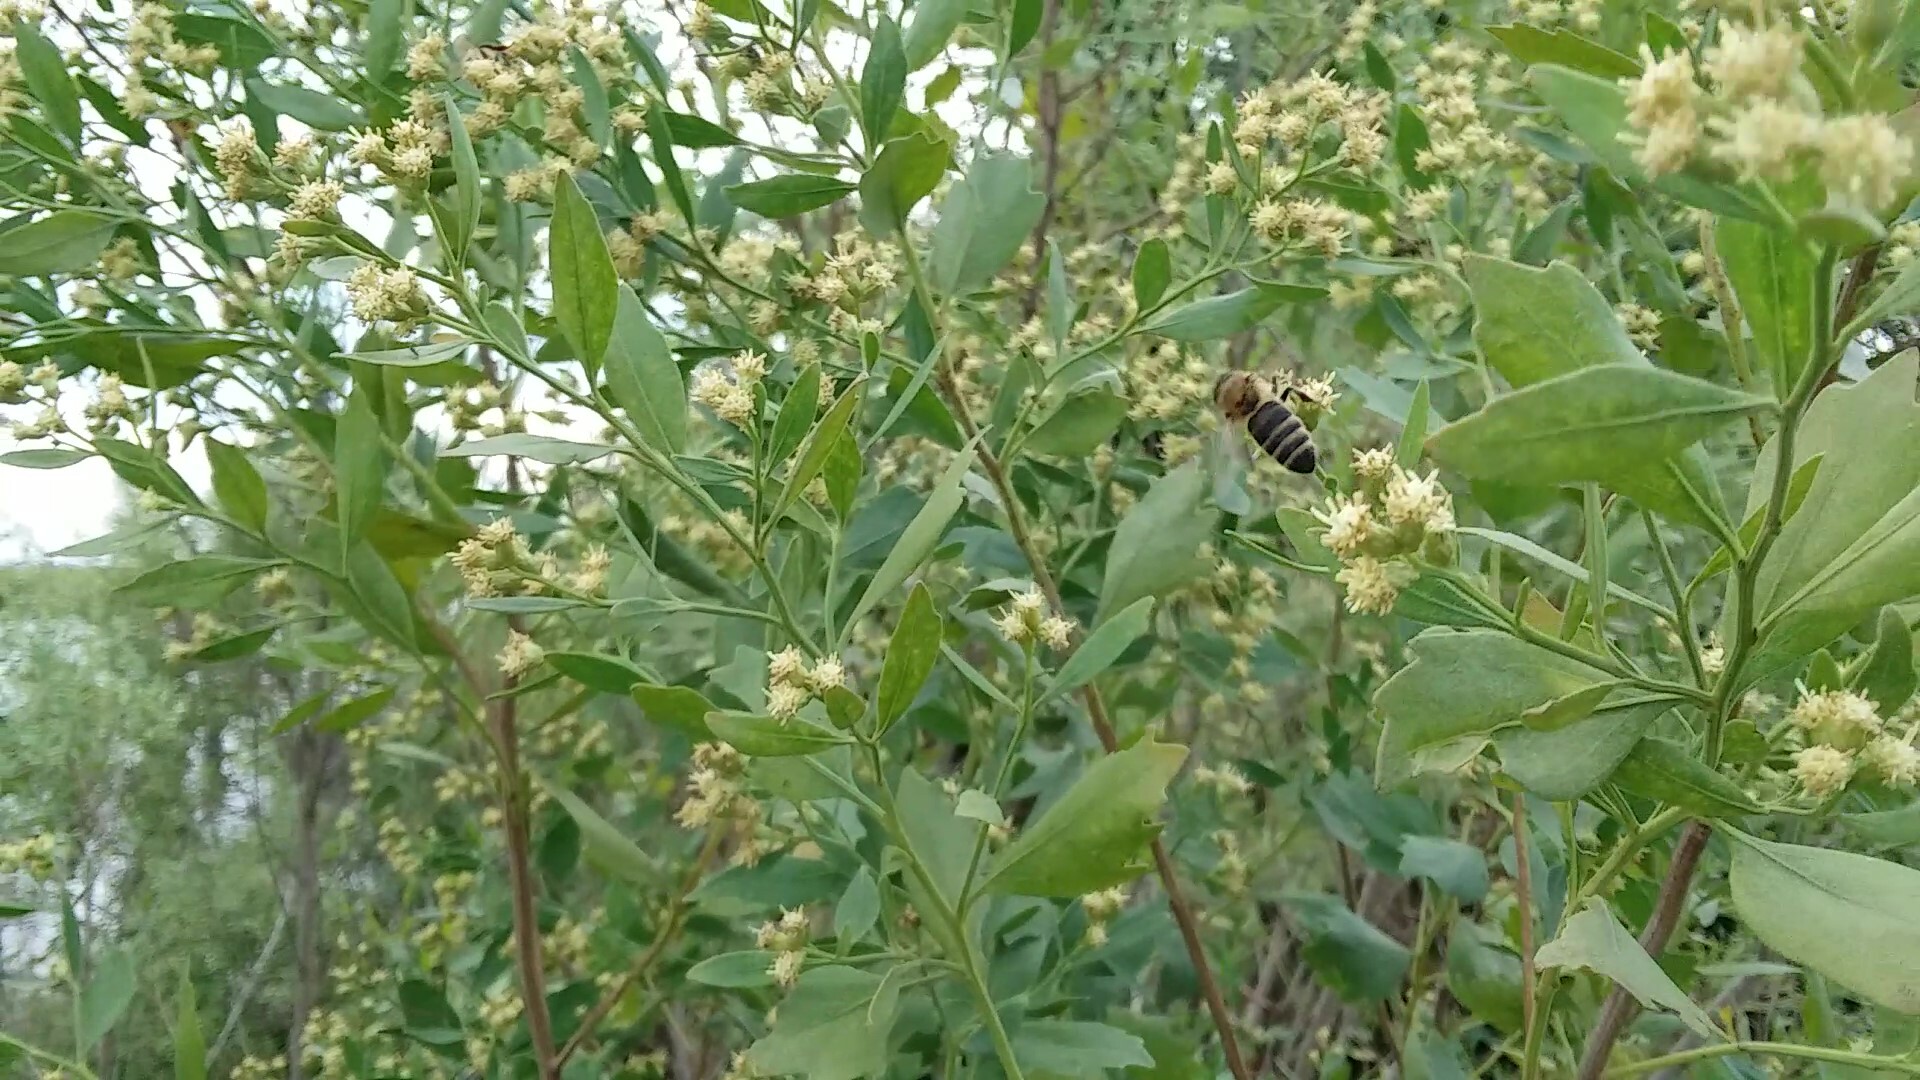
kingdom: Animalia
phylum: Arthropoda
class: Insecta
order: Hymenoptera
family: Apidae
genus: Apis
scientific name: Apis mellifera
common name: Honey bee
